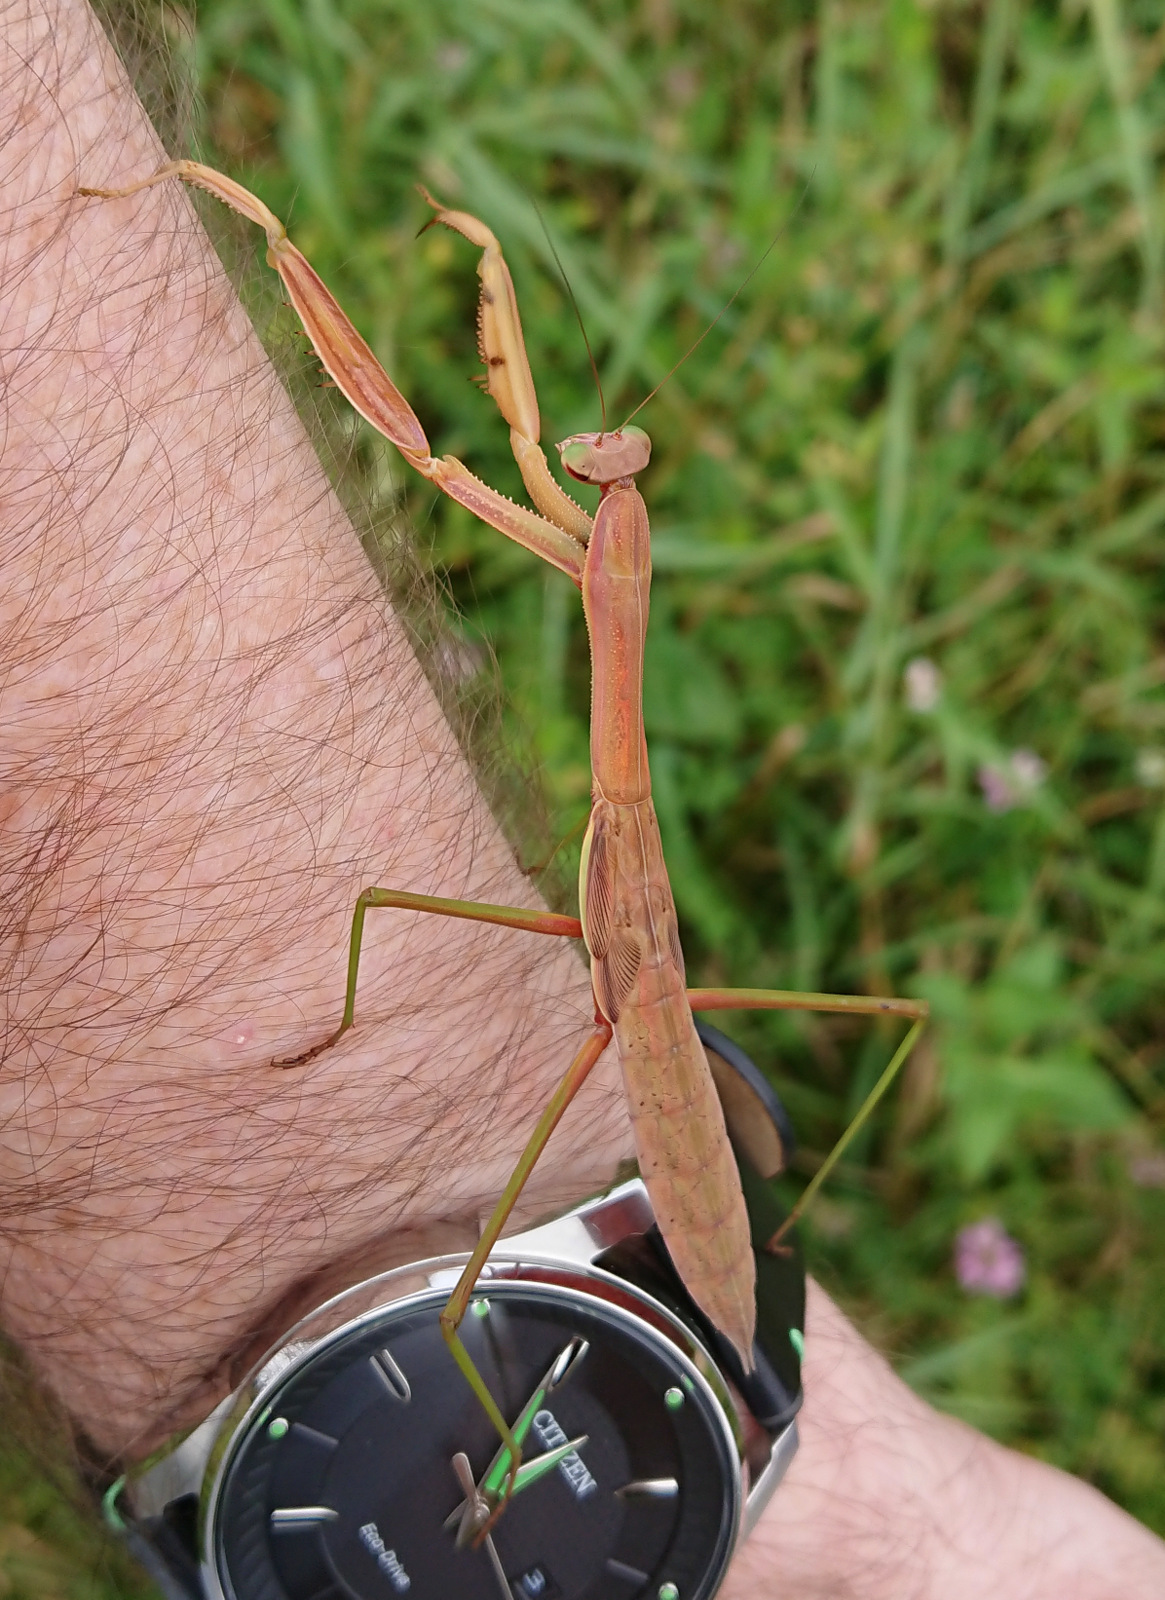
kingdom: Animalia
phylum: Arthropoda
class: Insecta
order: Mantodea
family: Mantidae
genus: Tenodera
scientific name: Tenodera sinensis
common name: Chinese mantis
